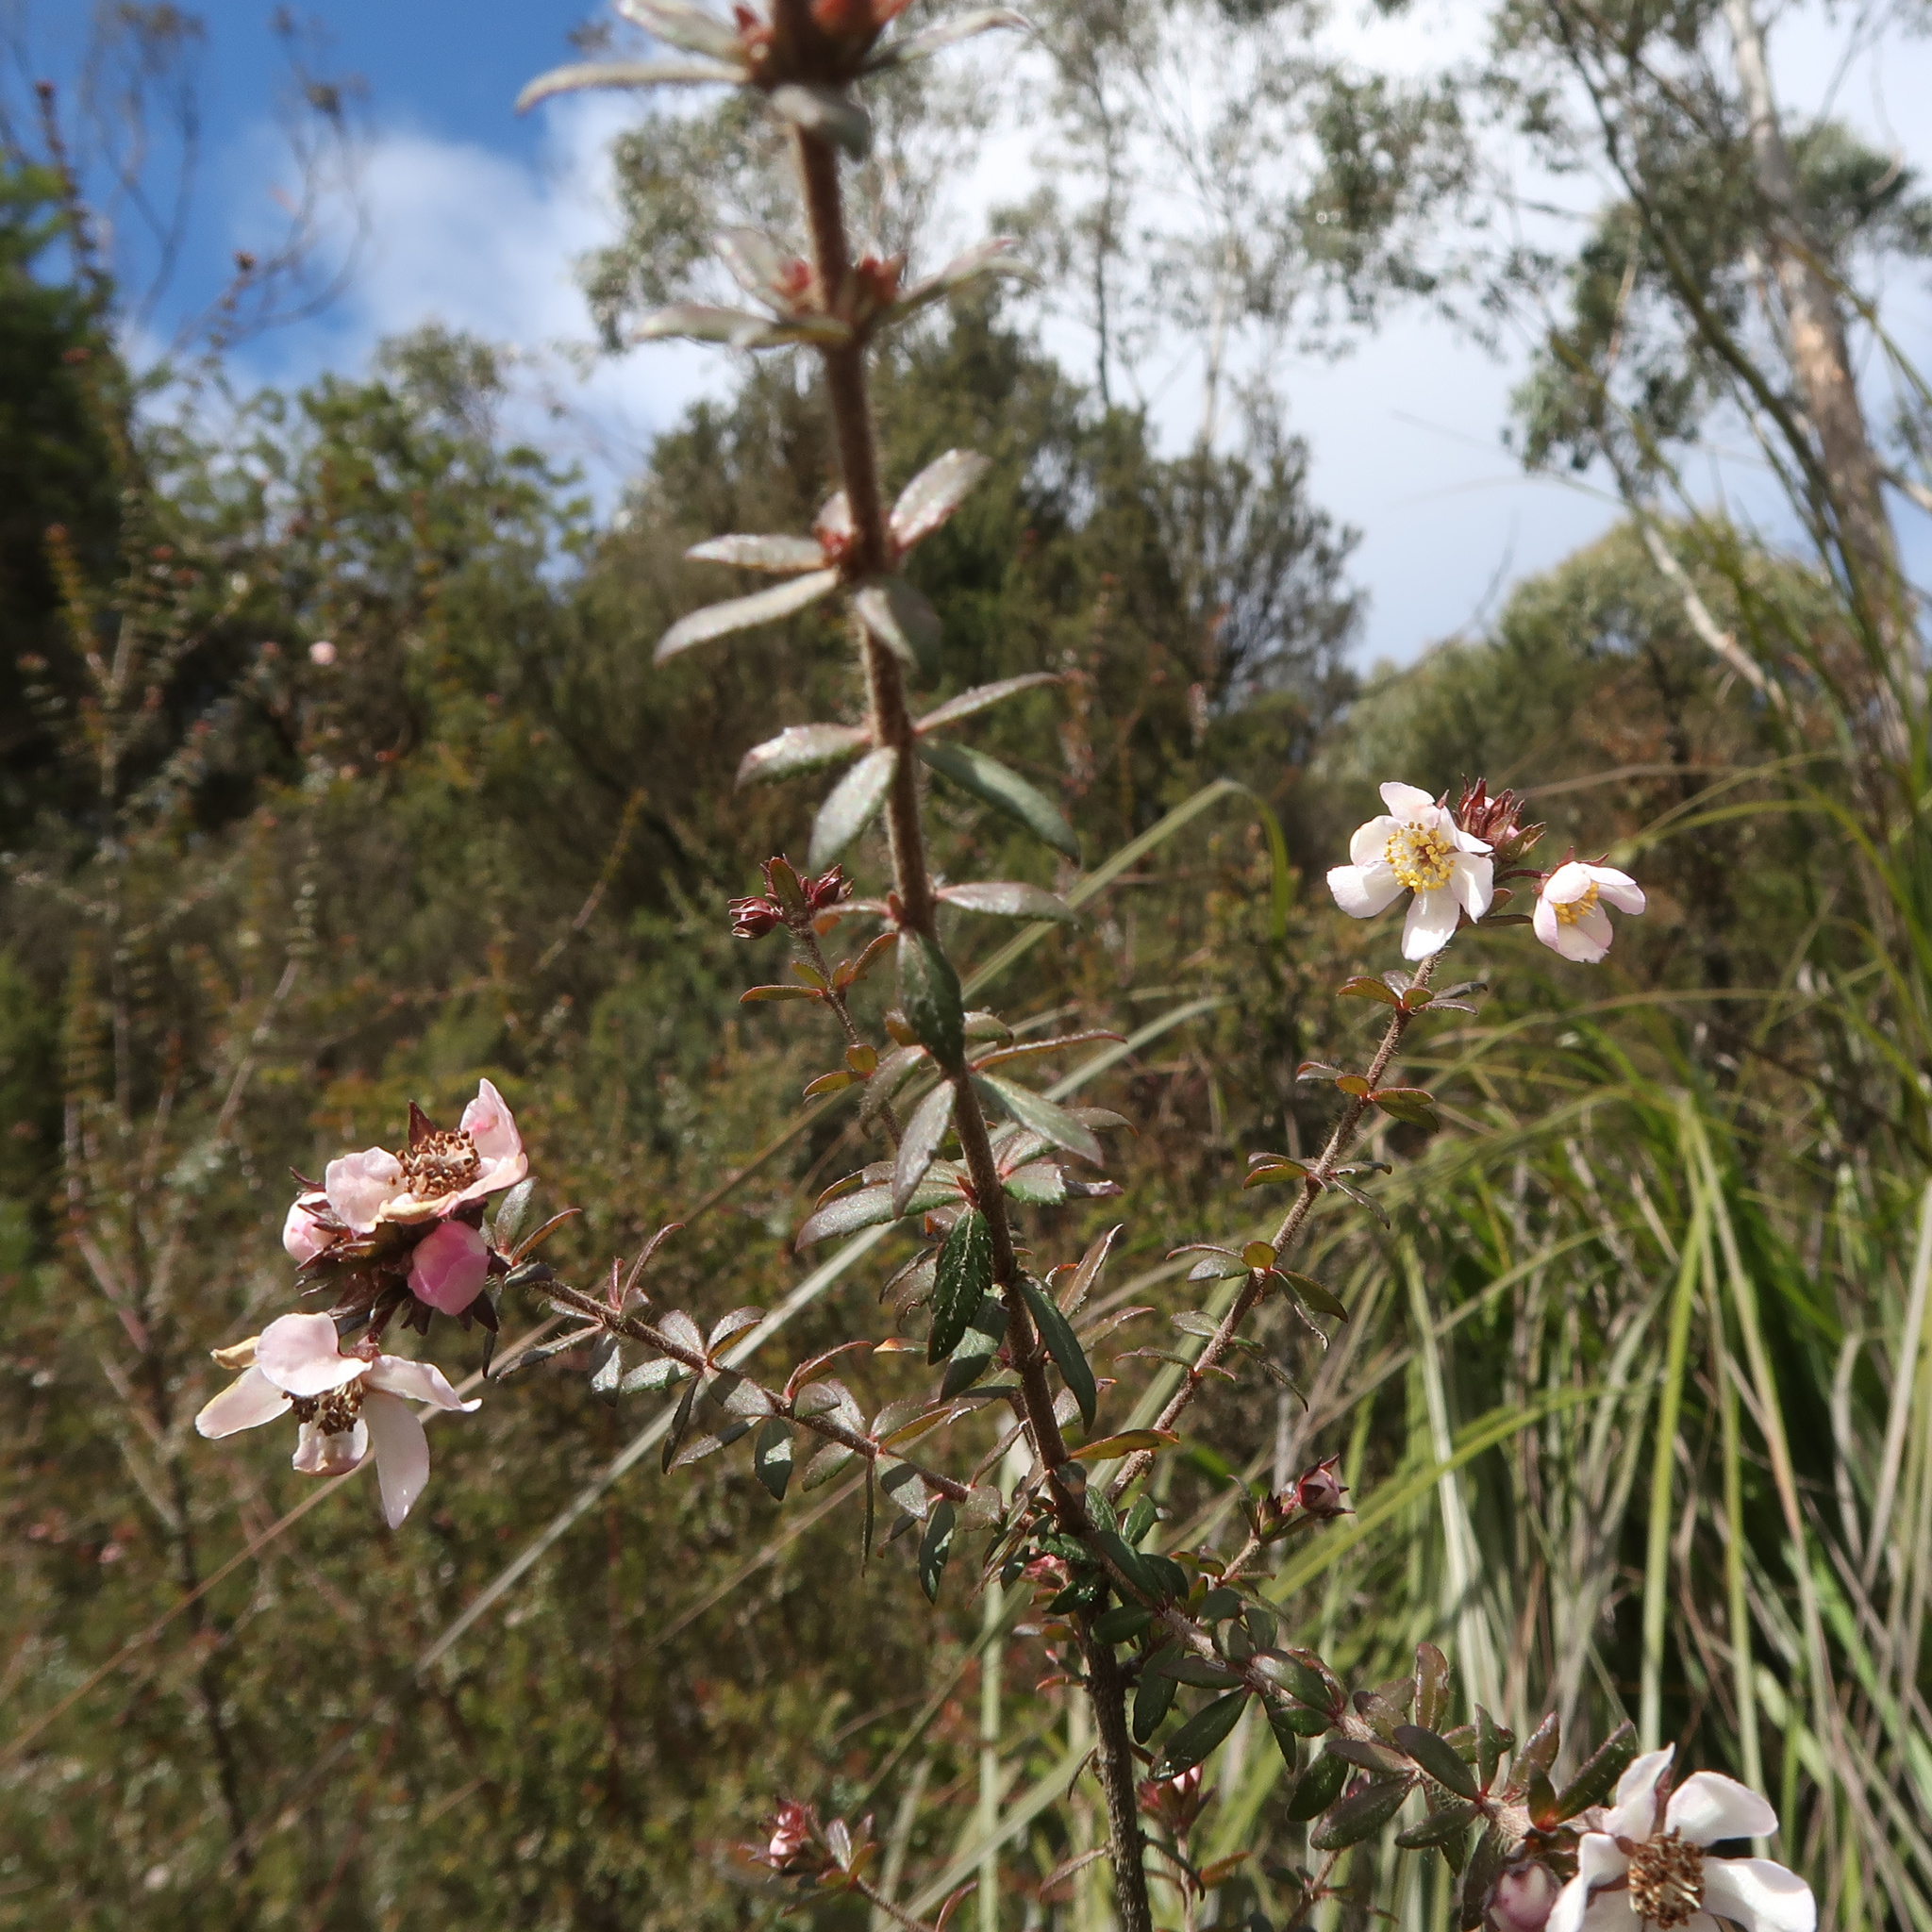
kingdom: Plantae
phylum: Tracheophyta
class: Magnoliopsida
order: Oxalidales
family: Cunoniaceae
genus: Bauera
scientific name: Bauera rubioides
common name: River-rose
